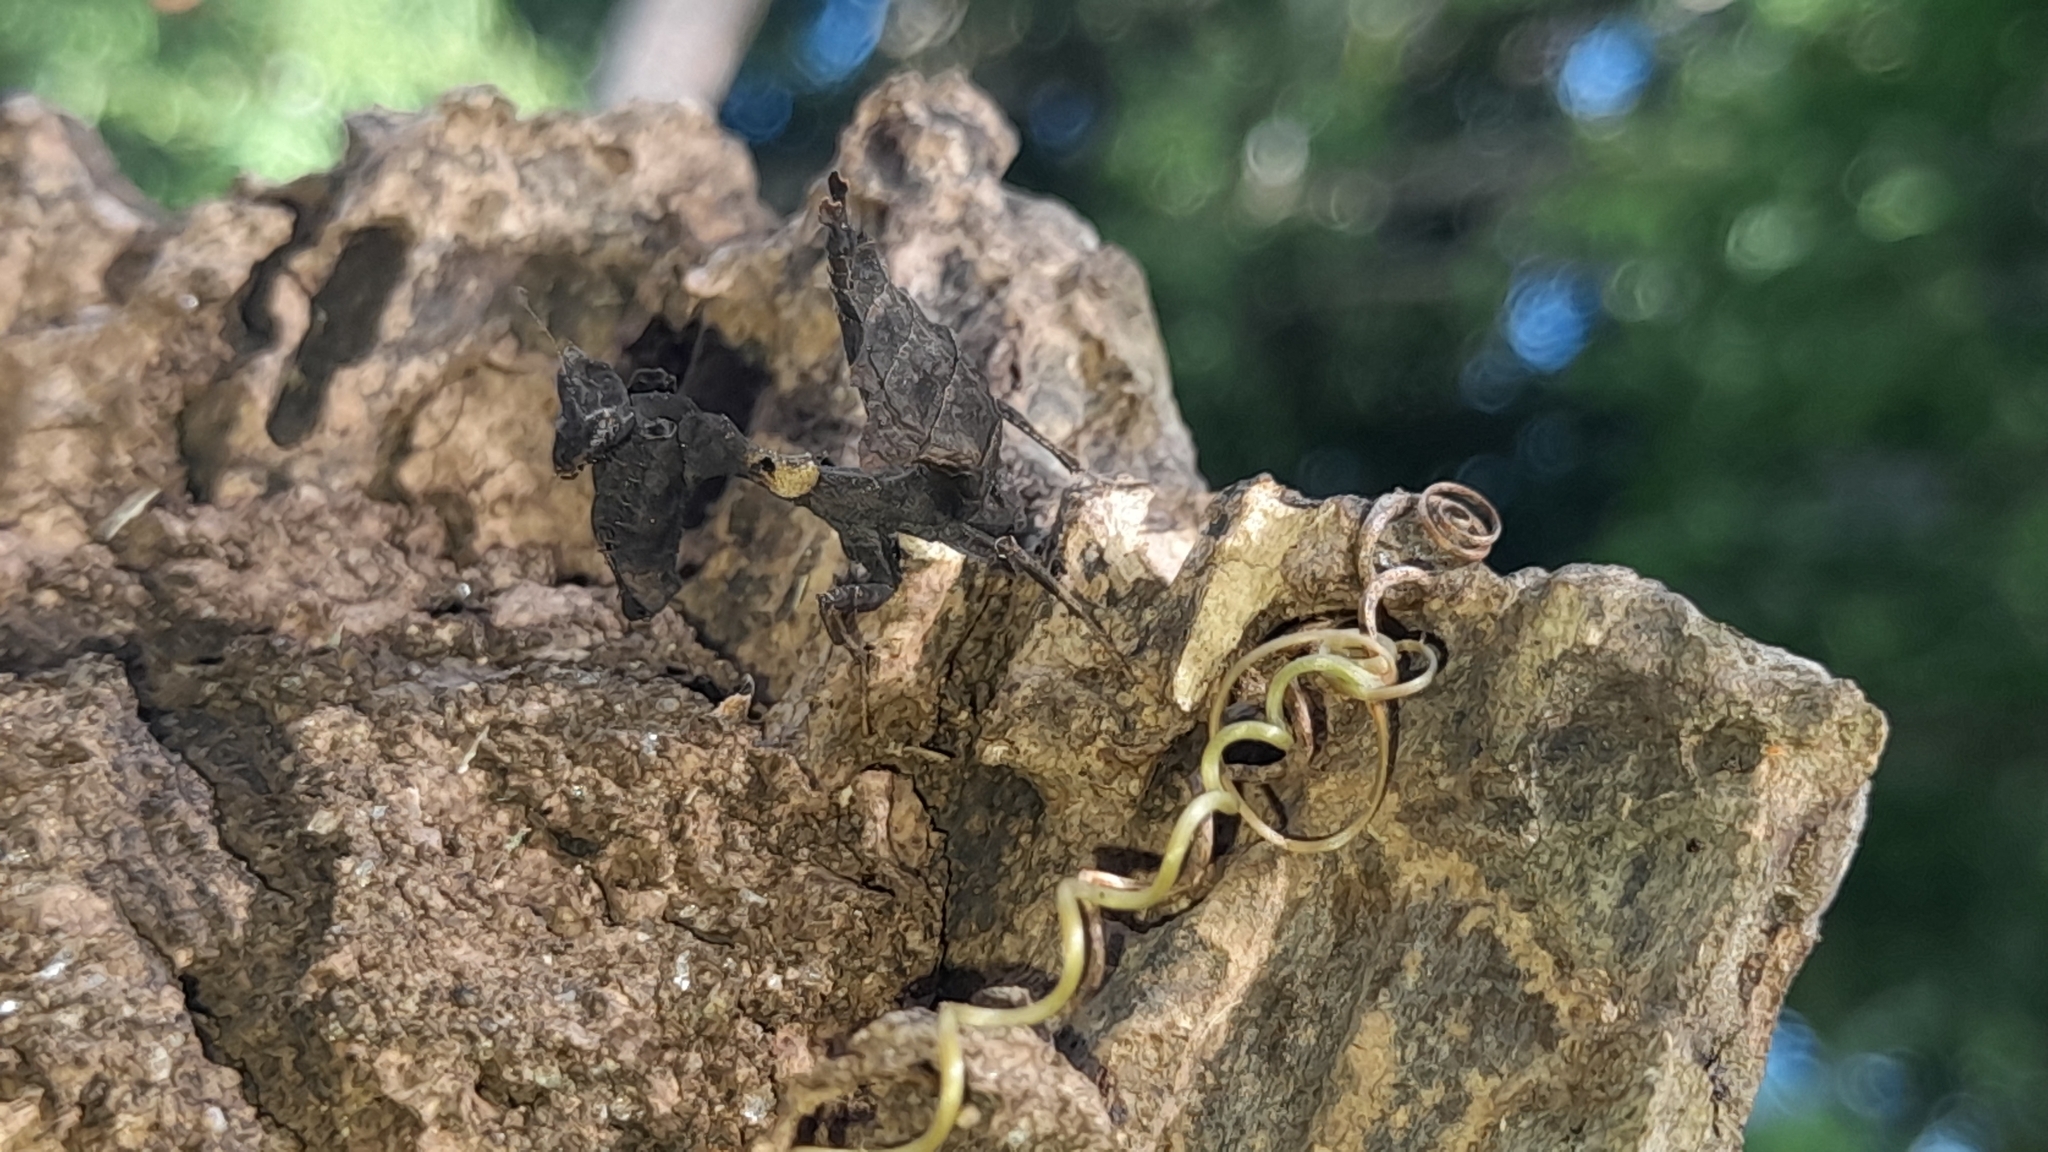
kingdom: Animalia
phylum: Arthropoda
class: Insecta
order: Mantodea
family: Acanthopidae
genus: Acanthops
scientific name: Acanthops falcata
